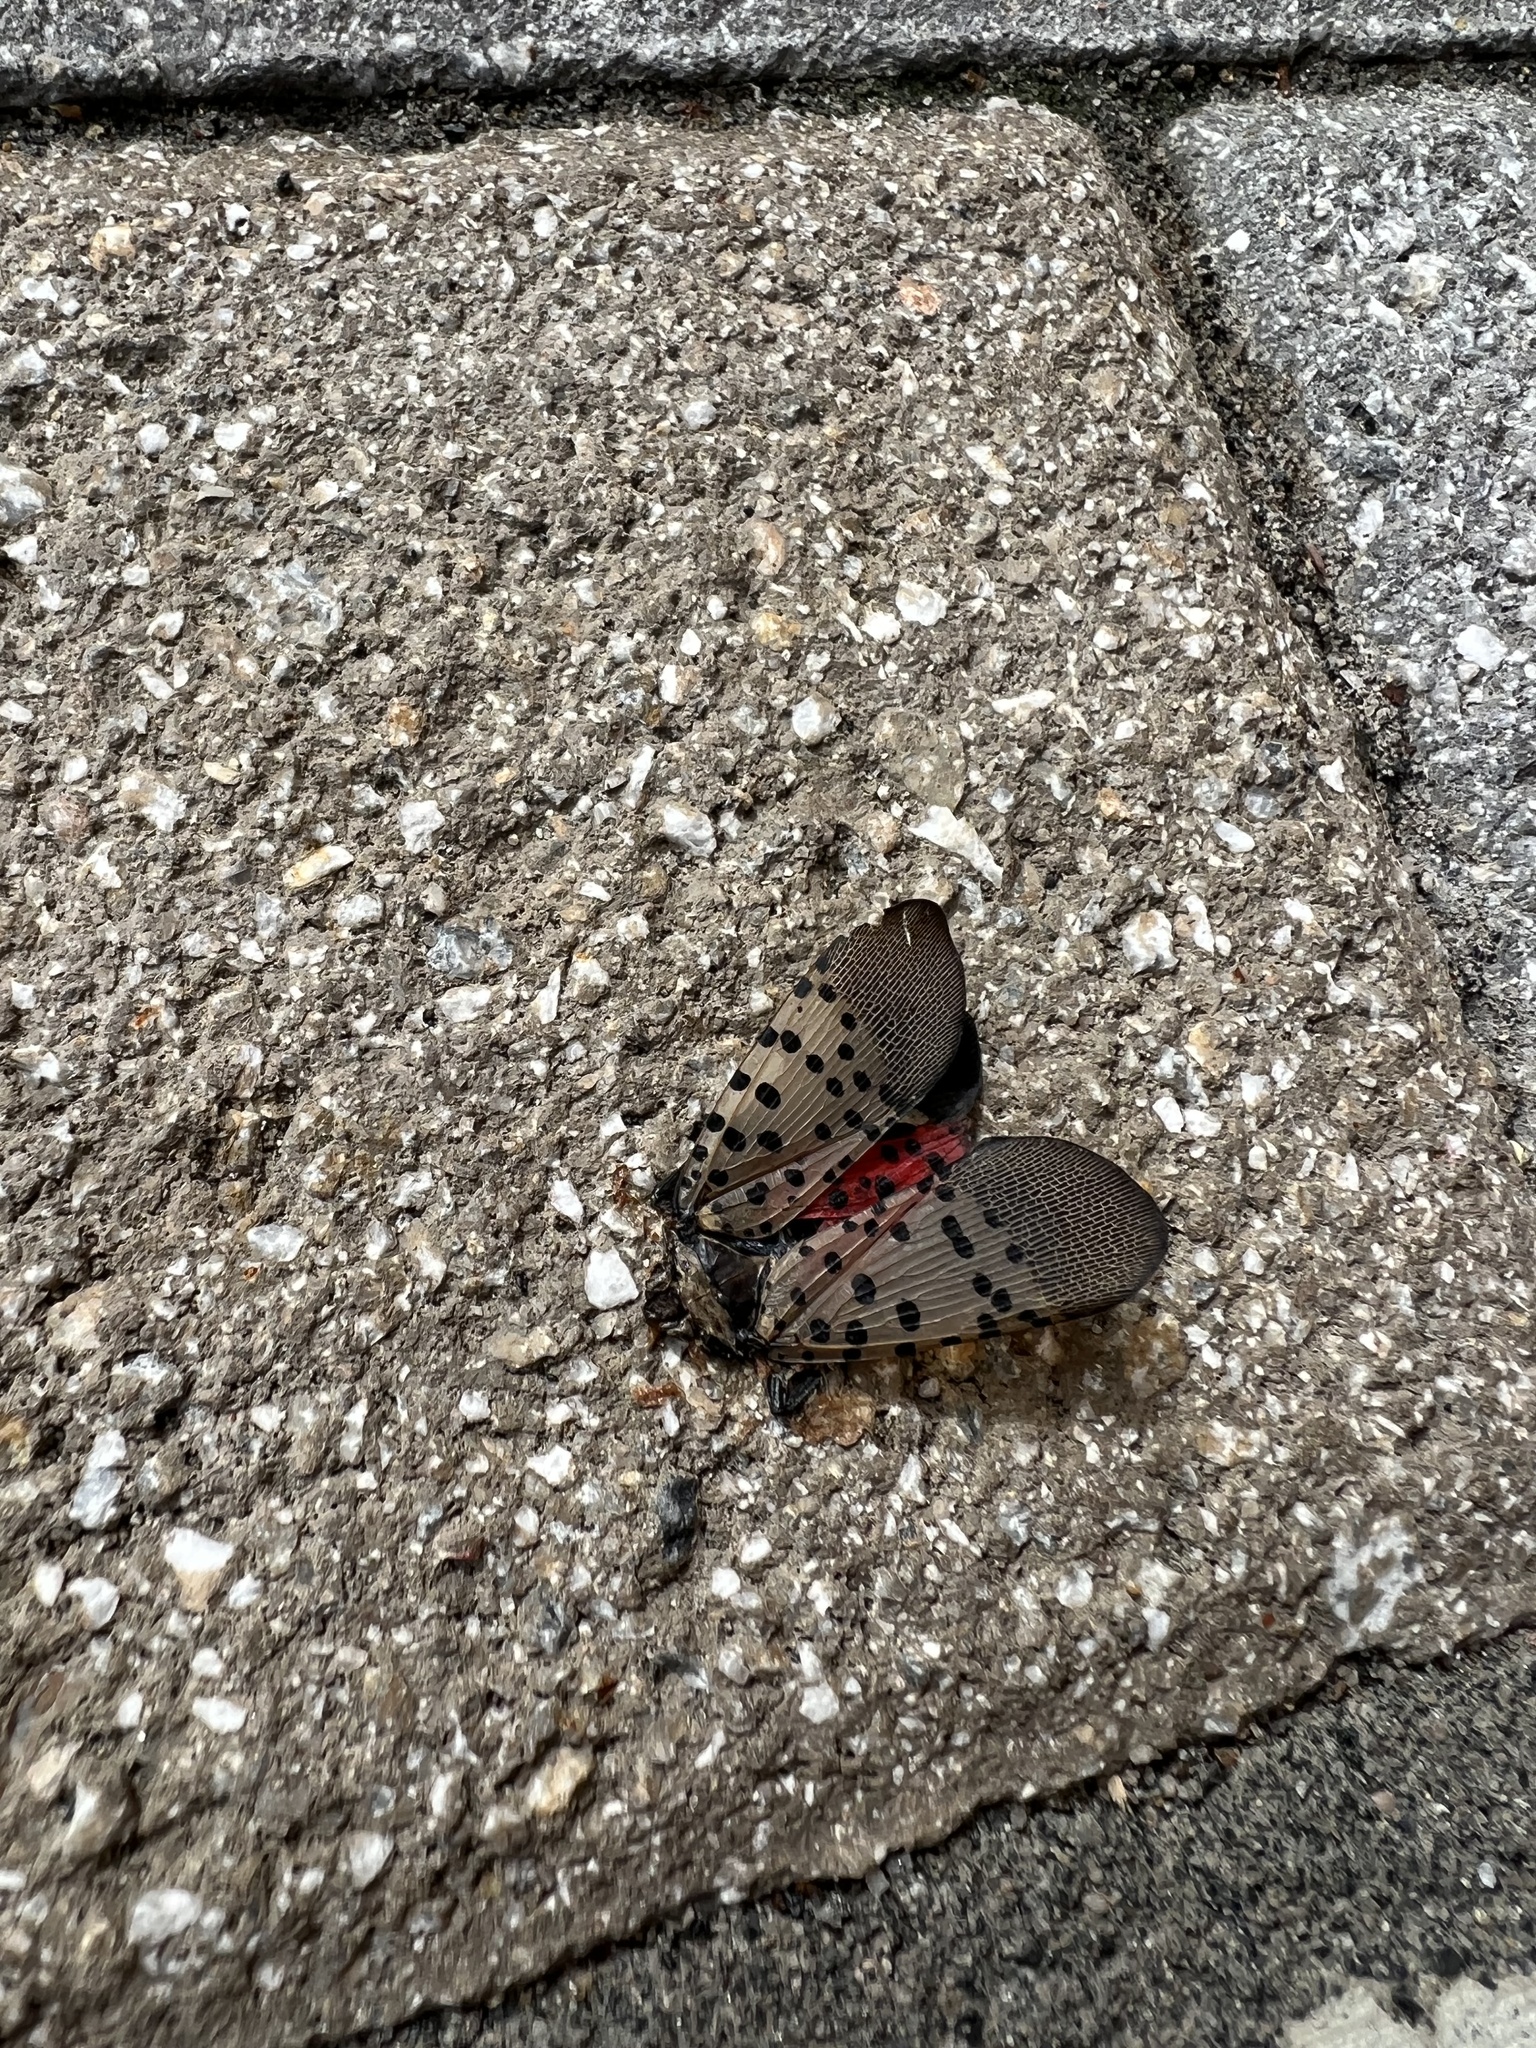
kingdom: Animalia
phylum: Arthropoda
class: Insecta
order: Hemiptera
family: Fulgoridae
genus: Lycorma
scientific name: Lycorma delicatula
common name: Spotted lanternfly
